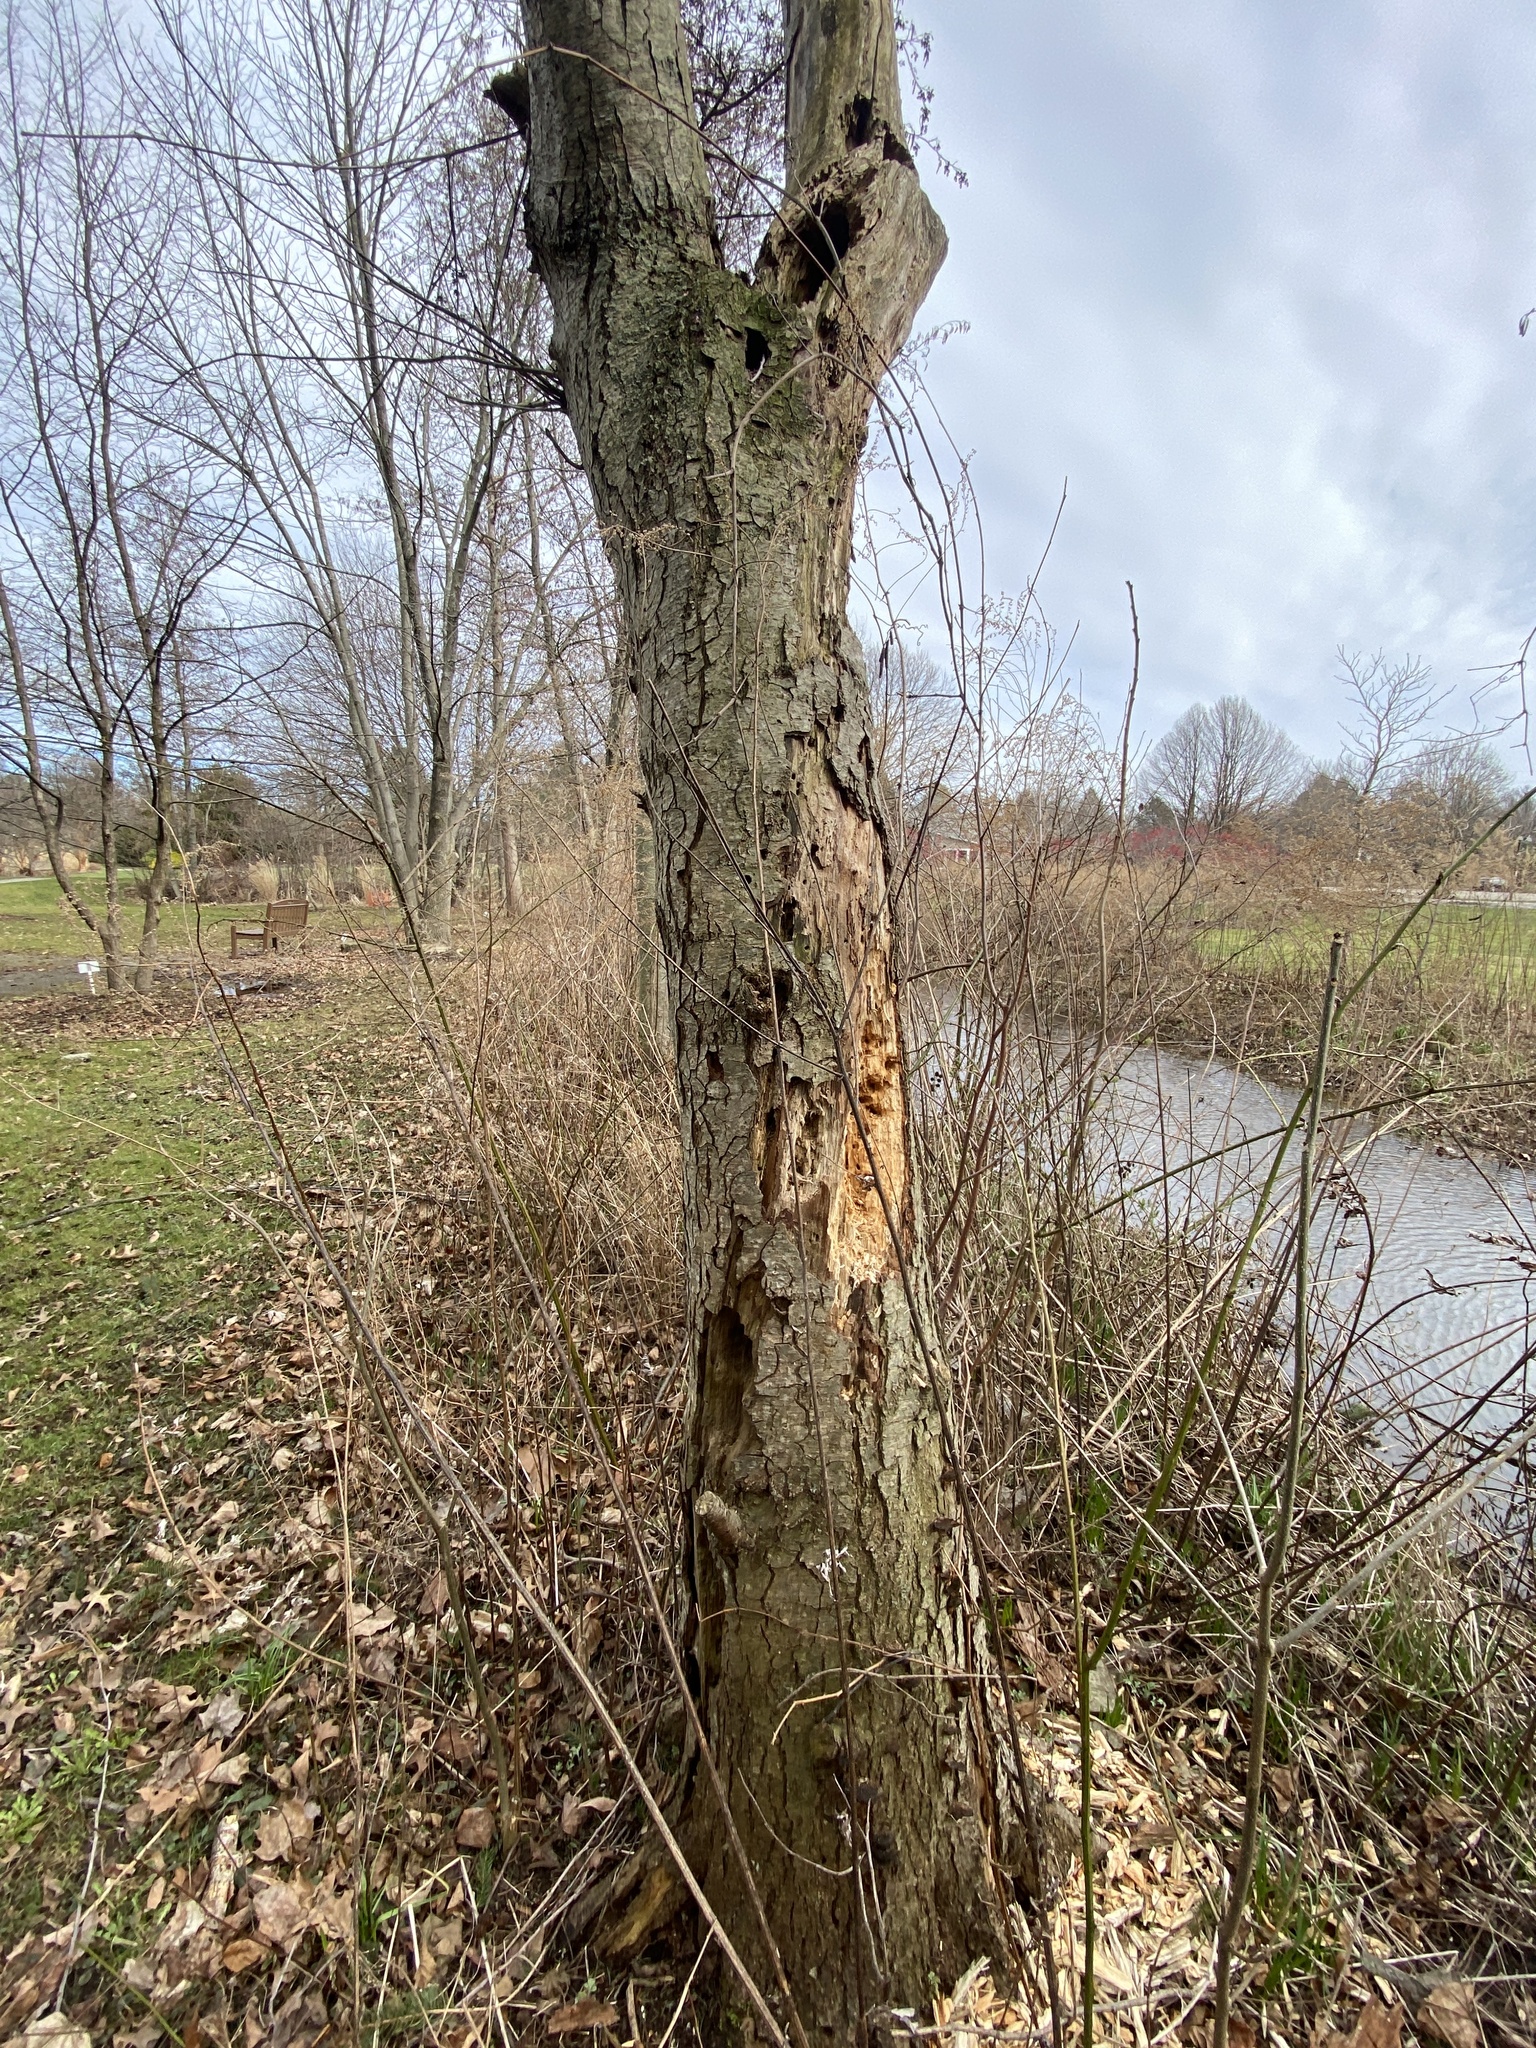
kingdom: Animalia
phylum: Chordata
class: Aves
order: Piciformes
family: Picidae
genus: Dryocopus
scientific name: Dryocopus pileatus
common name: Pileated woodpecker
